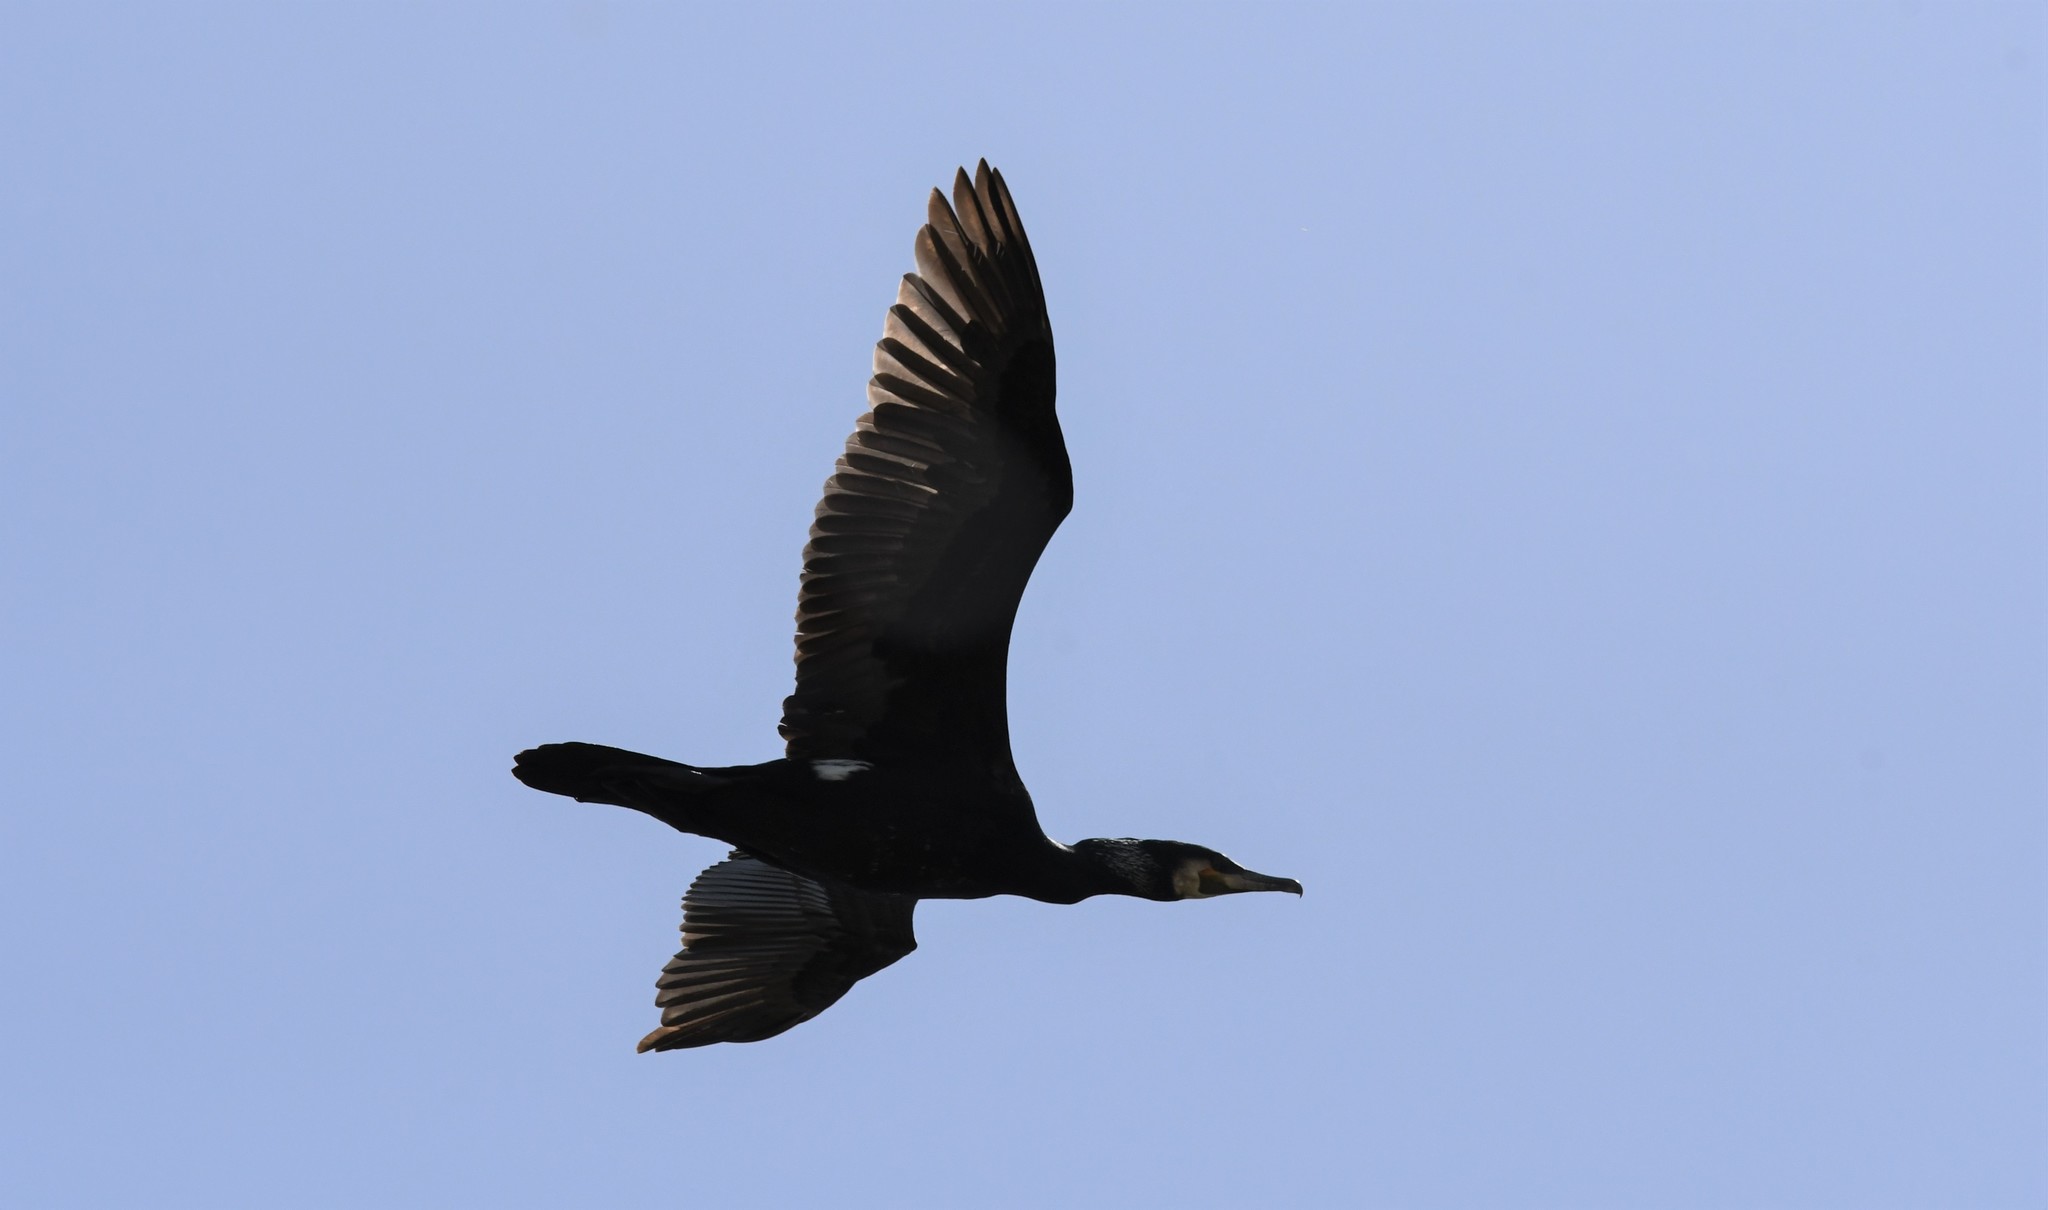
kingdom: Animalia
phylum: Chordata
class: Aves
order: Suliformes
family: Phalacrocoracidae
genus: Phalacrocorax
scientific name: Phalacrocorax carbo
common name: Great cormorant
